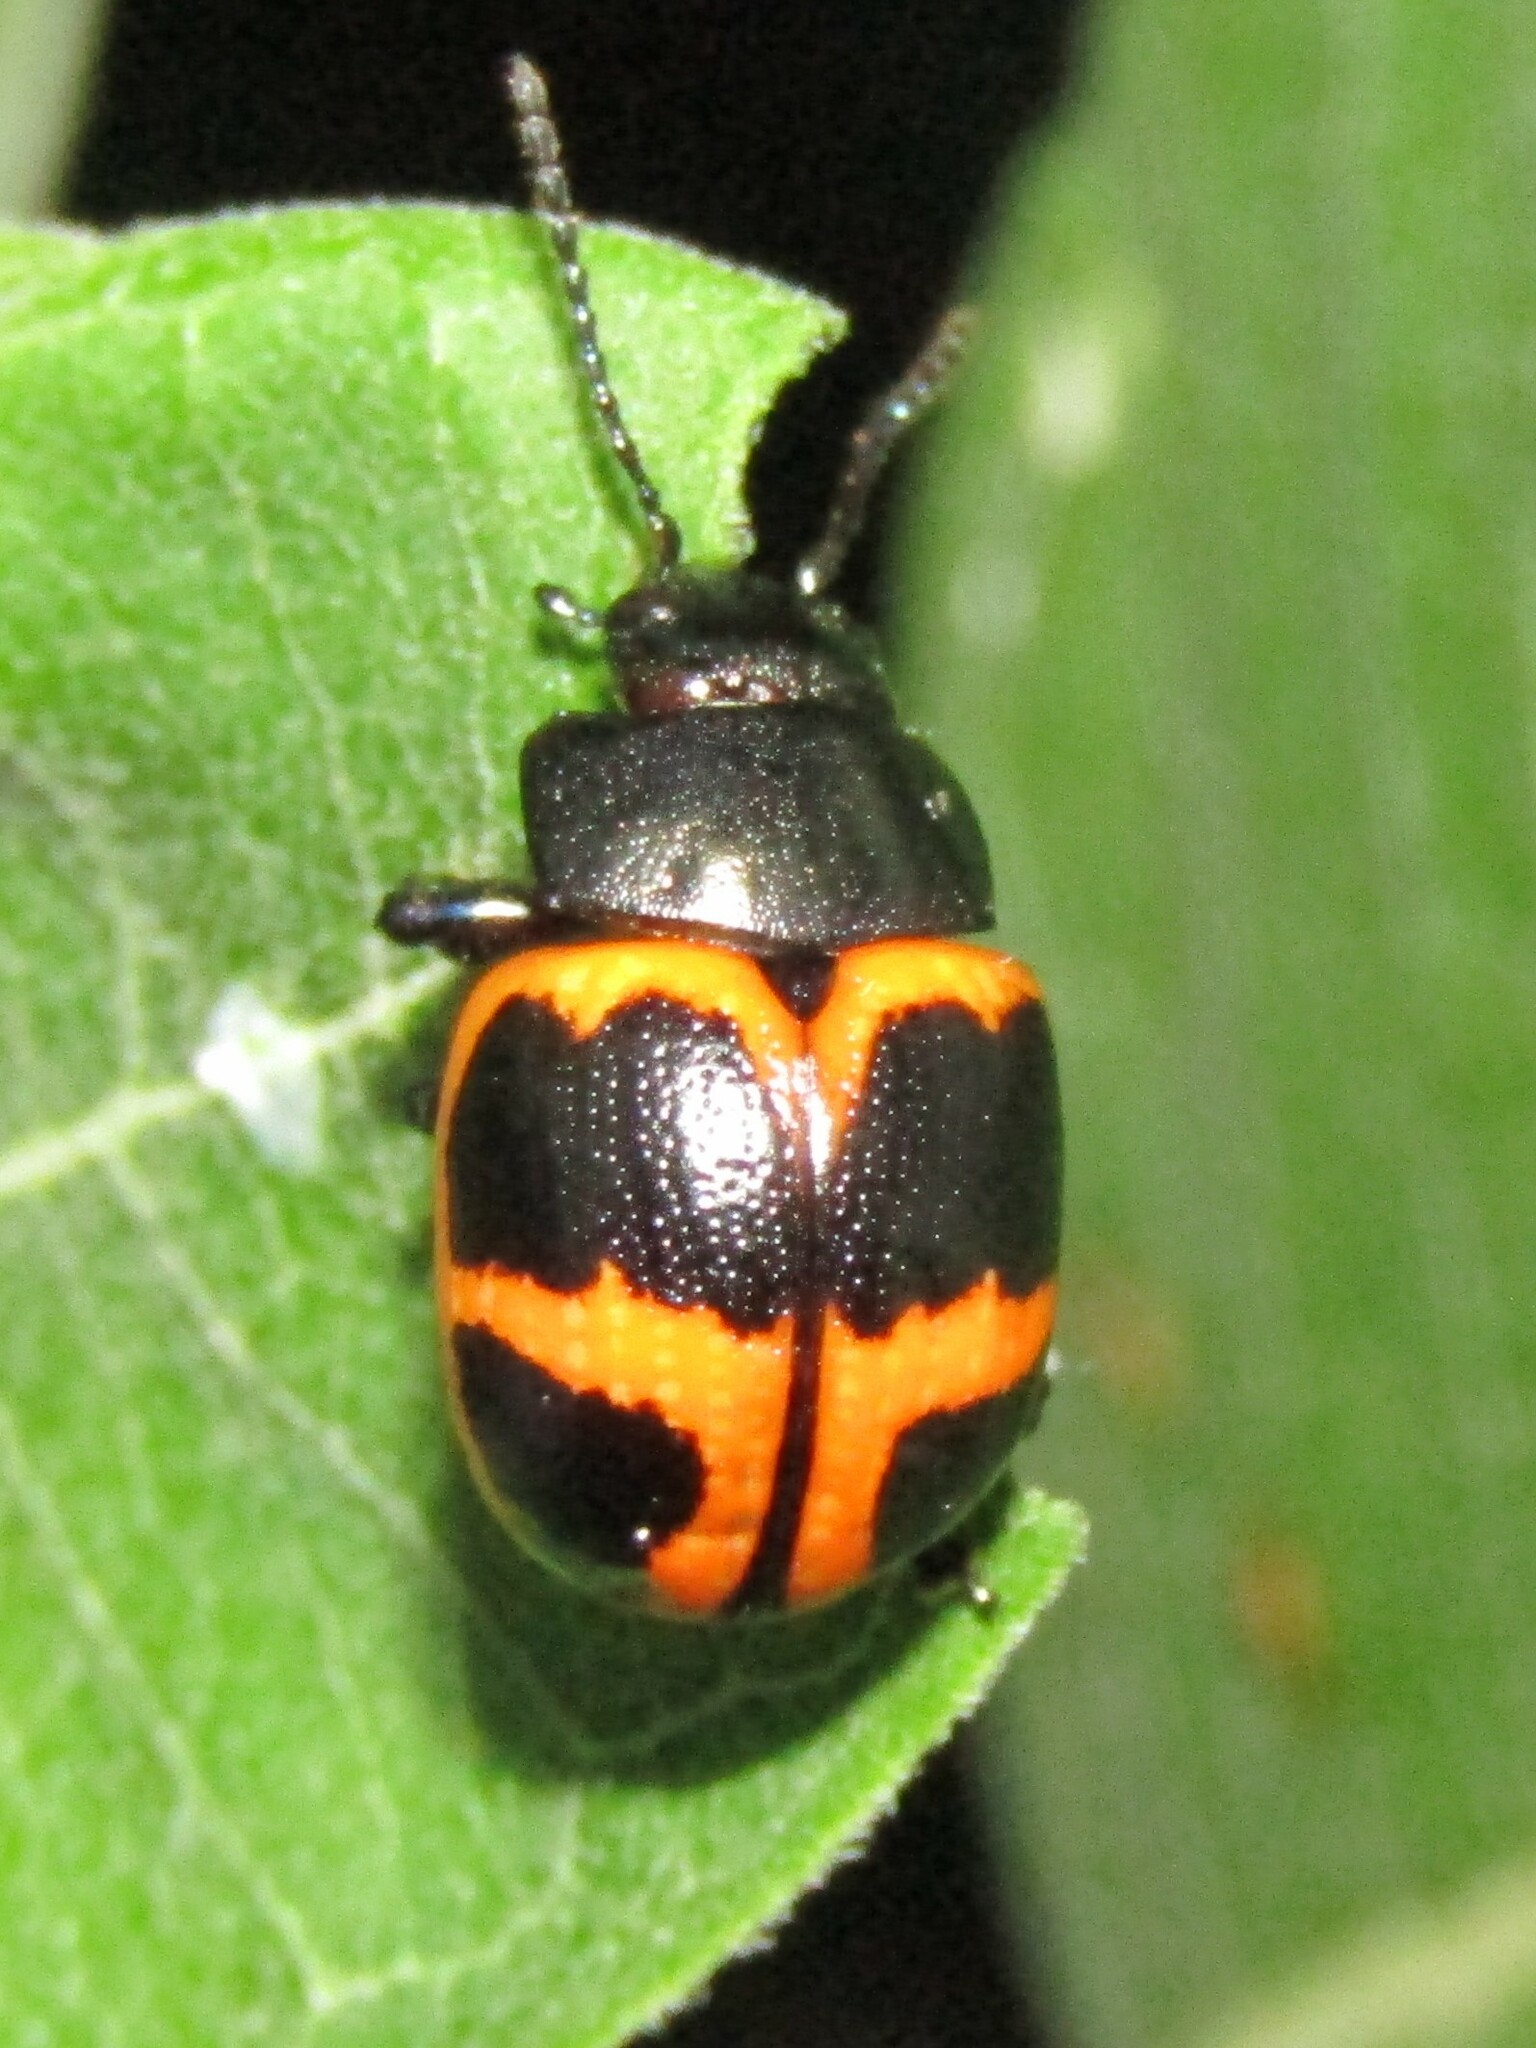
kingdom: Animalia
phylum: Arthropoda
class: Insecta
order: Coleoptera
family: Chrysomelidae
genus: Labidomera
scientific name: Labidomera clivicollis
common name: Swamp milkweed leaf beetle
